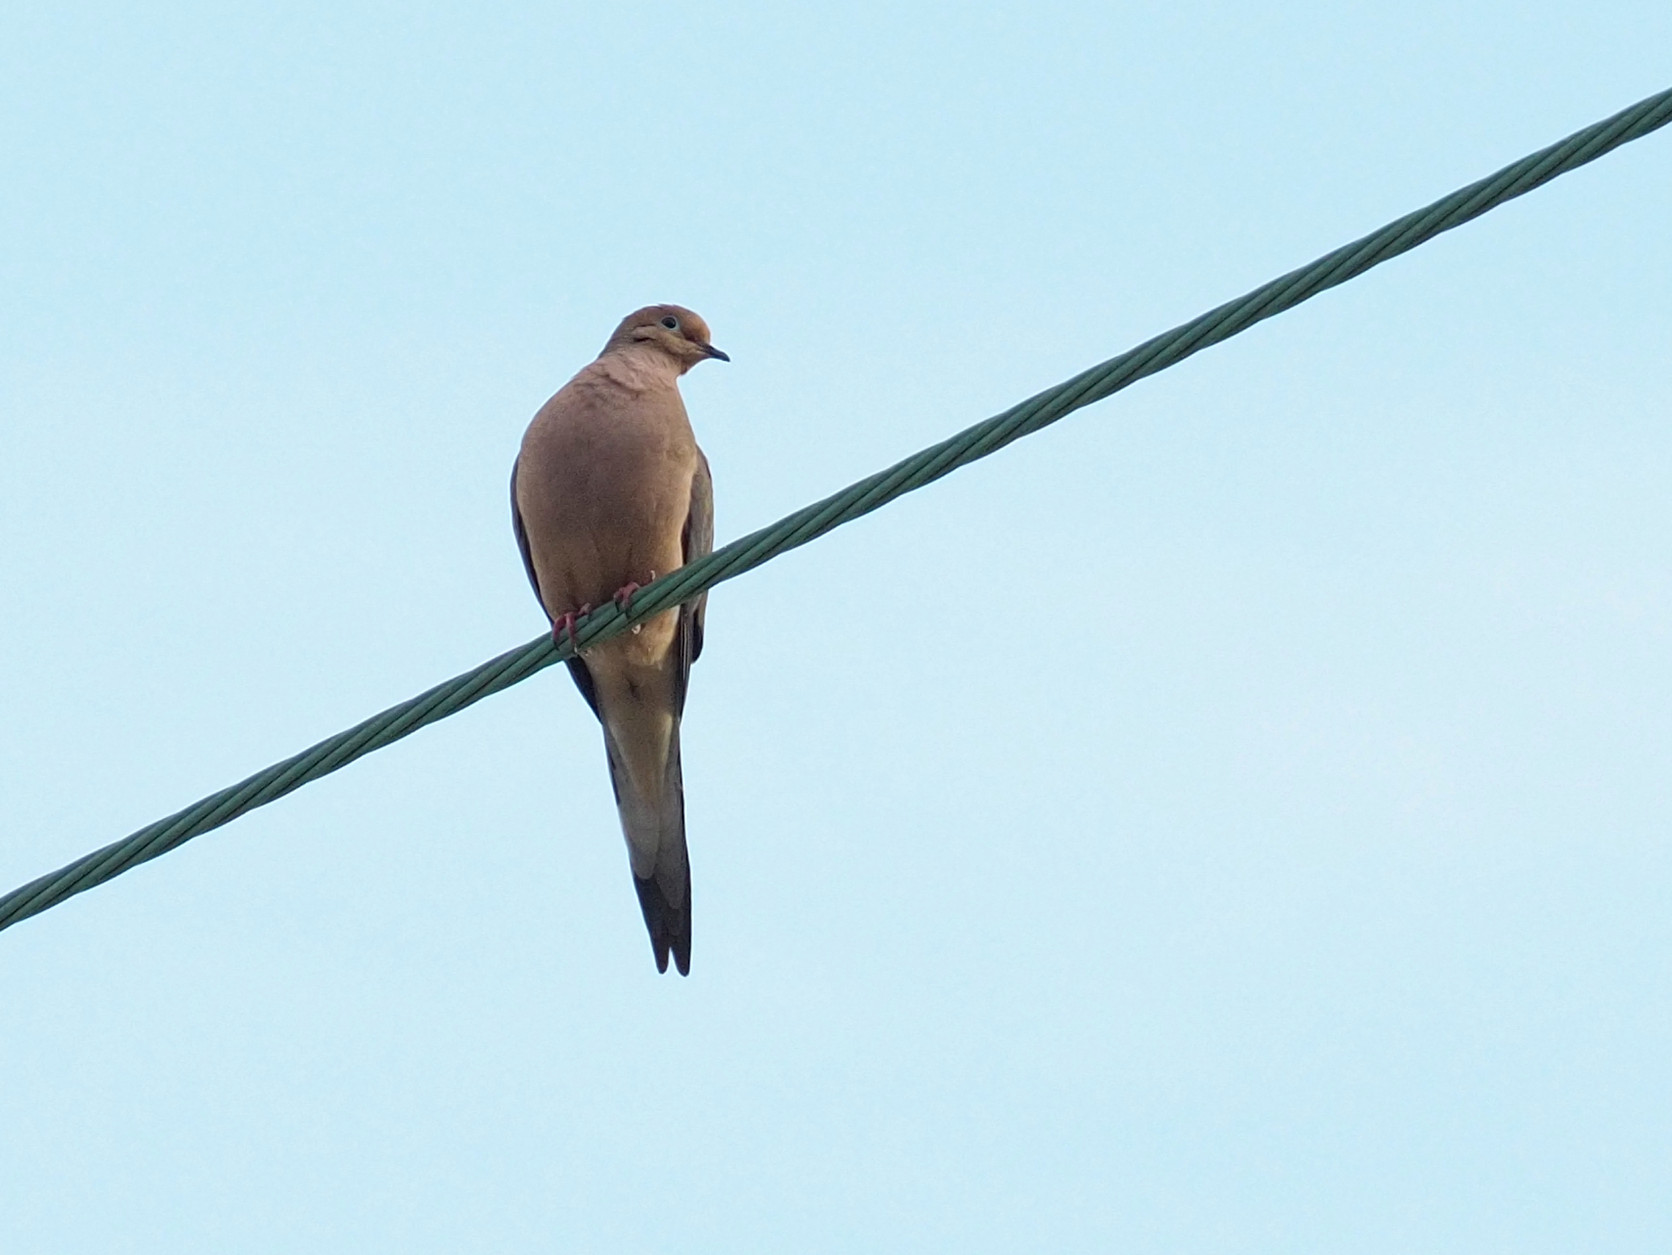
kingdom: Animalia
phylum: Chordata
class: Aves
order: Columbiformes
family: Columbidae
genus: Zenaida
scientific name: Zenaida macroura
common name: Mourning dove
